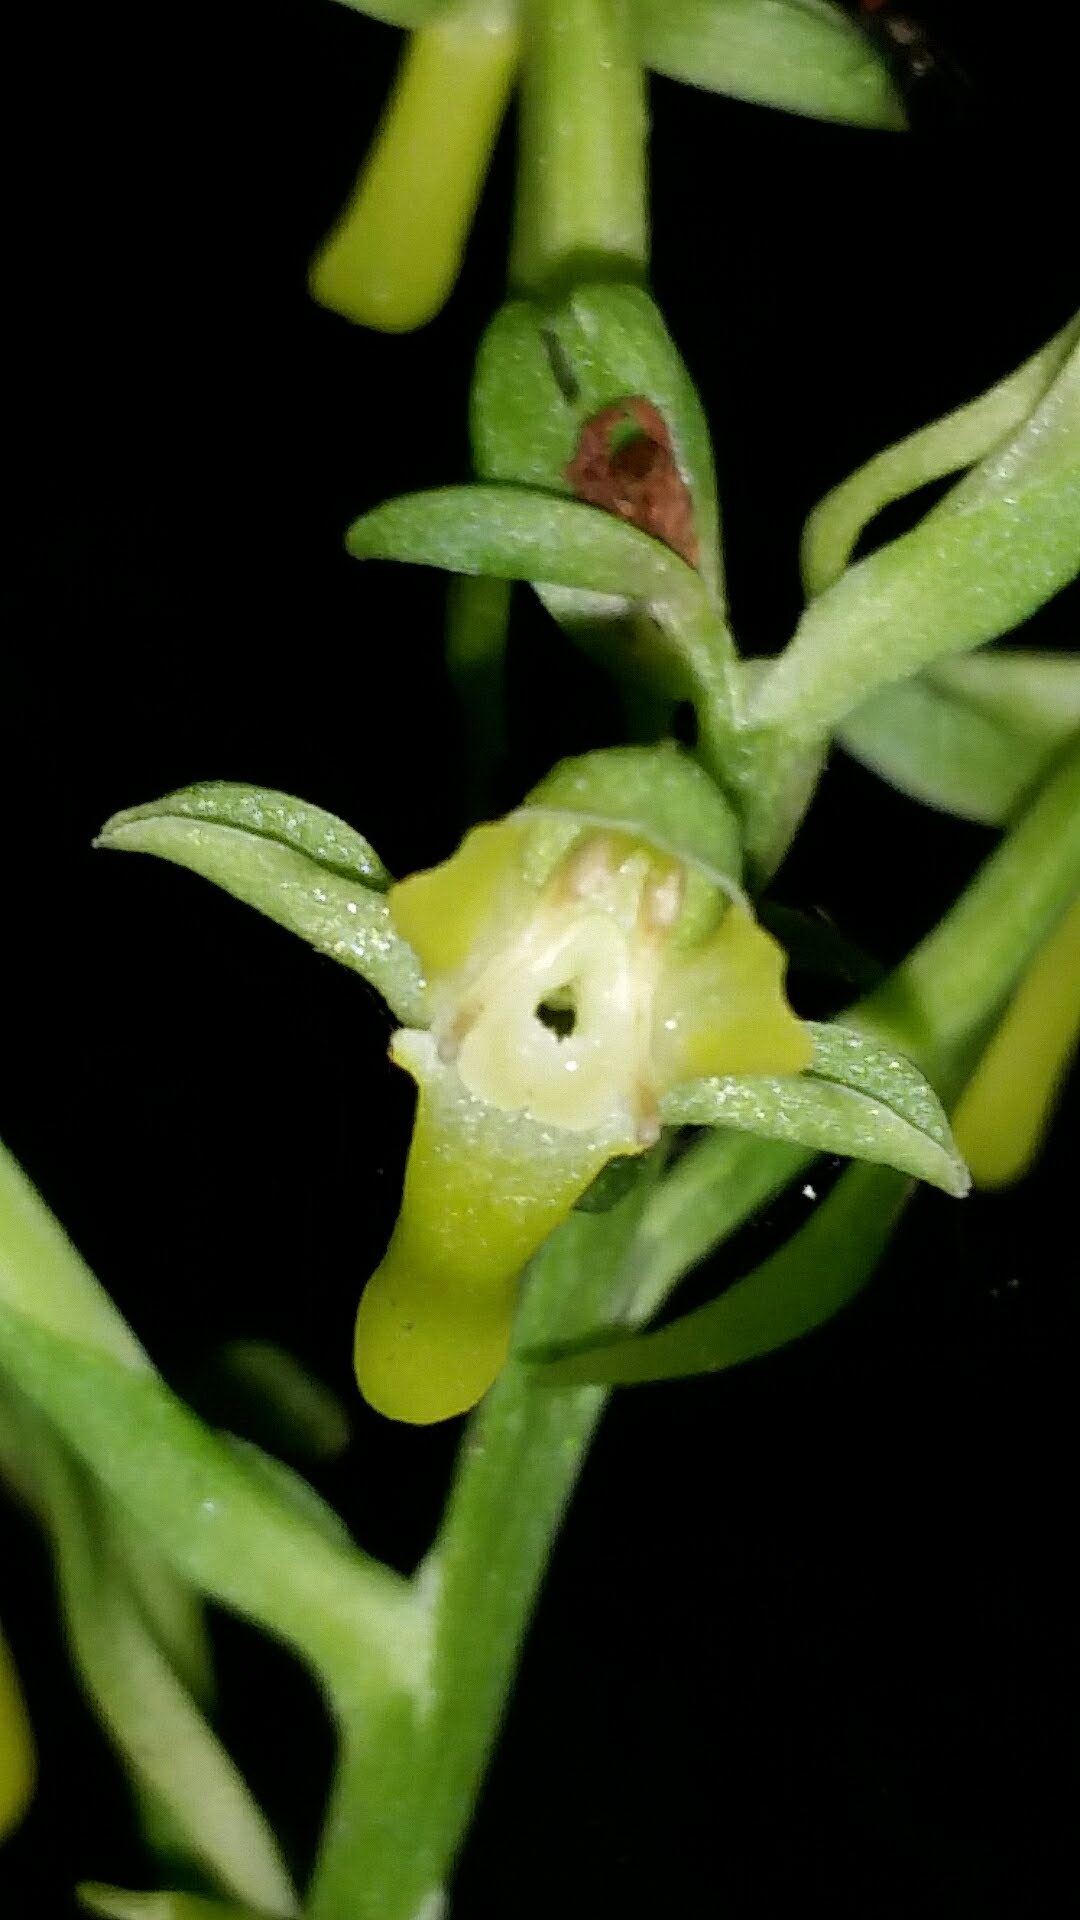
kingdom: Plantae
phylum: Tracheophyta
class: Liliopsida
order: Asparagales
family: Orchidaceae
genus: Habenaria
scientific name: Habenaria floribunda
